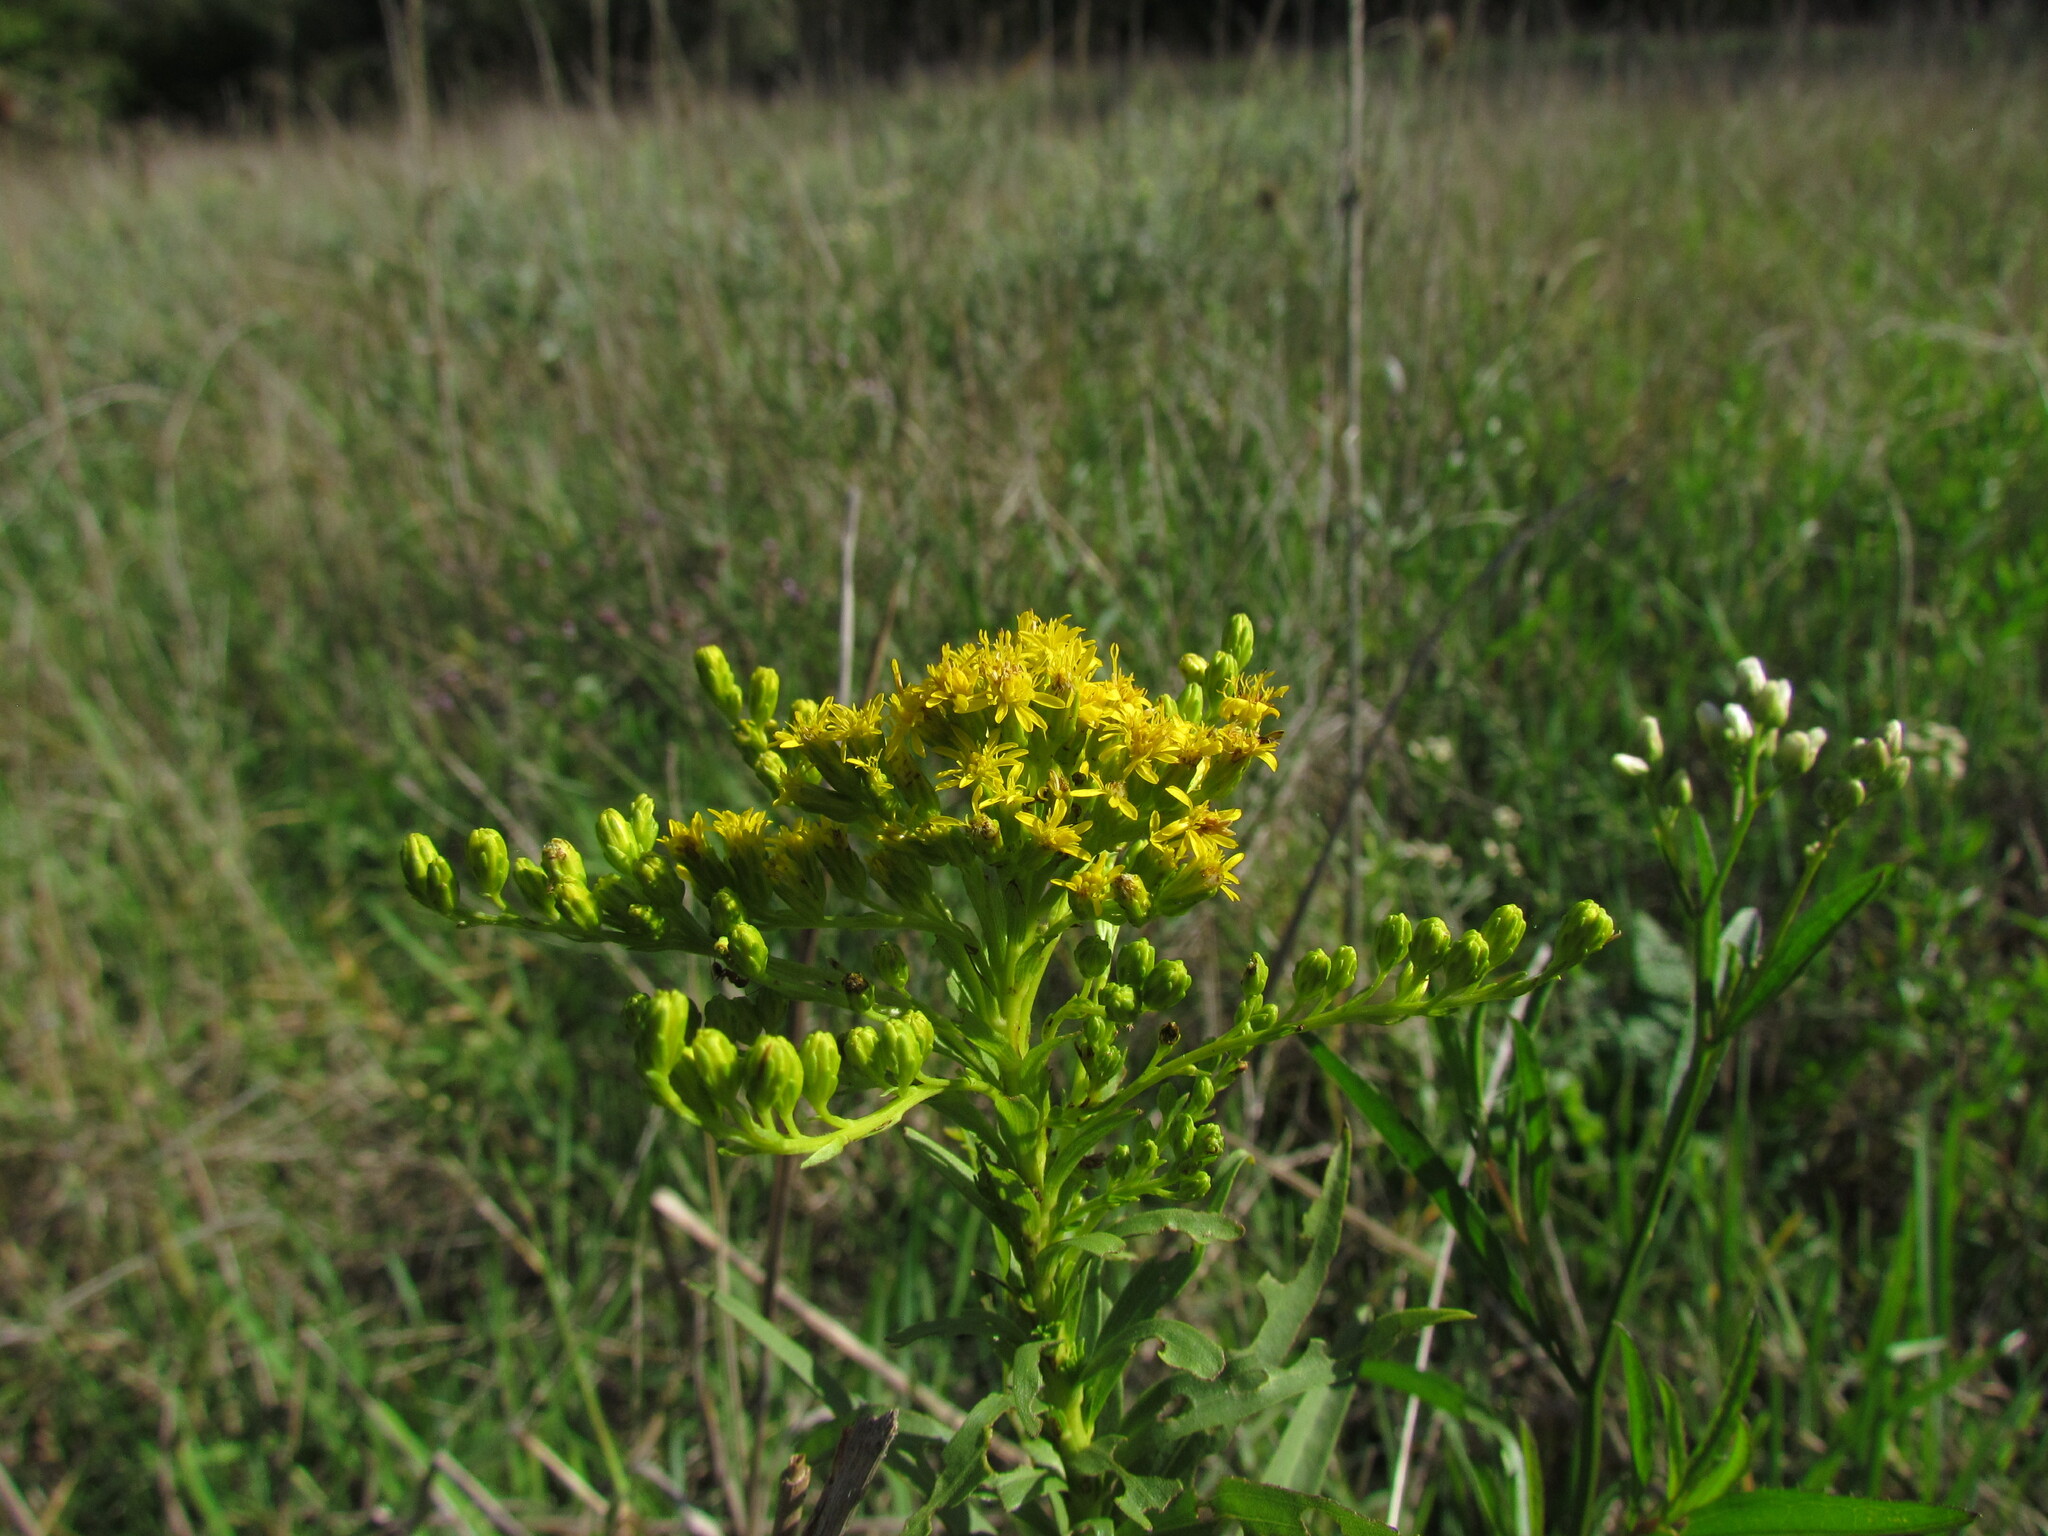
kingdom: Plantae
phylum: Tracheophyta
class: Magnoliopsida
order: Asterales
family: Asteraceae
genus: Solidago
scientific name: Solidago chilensis
